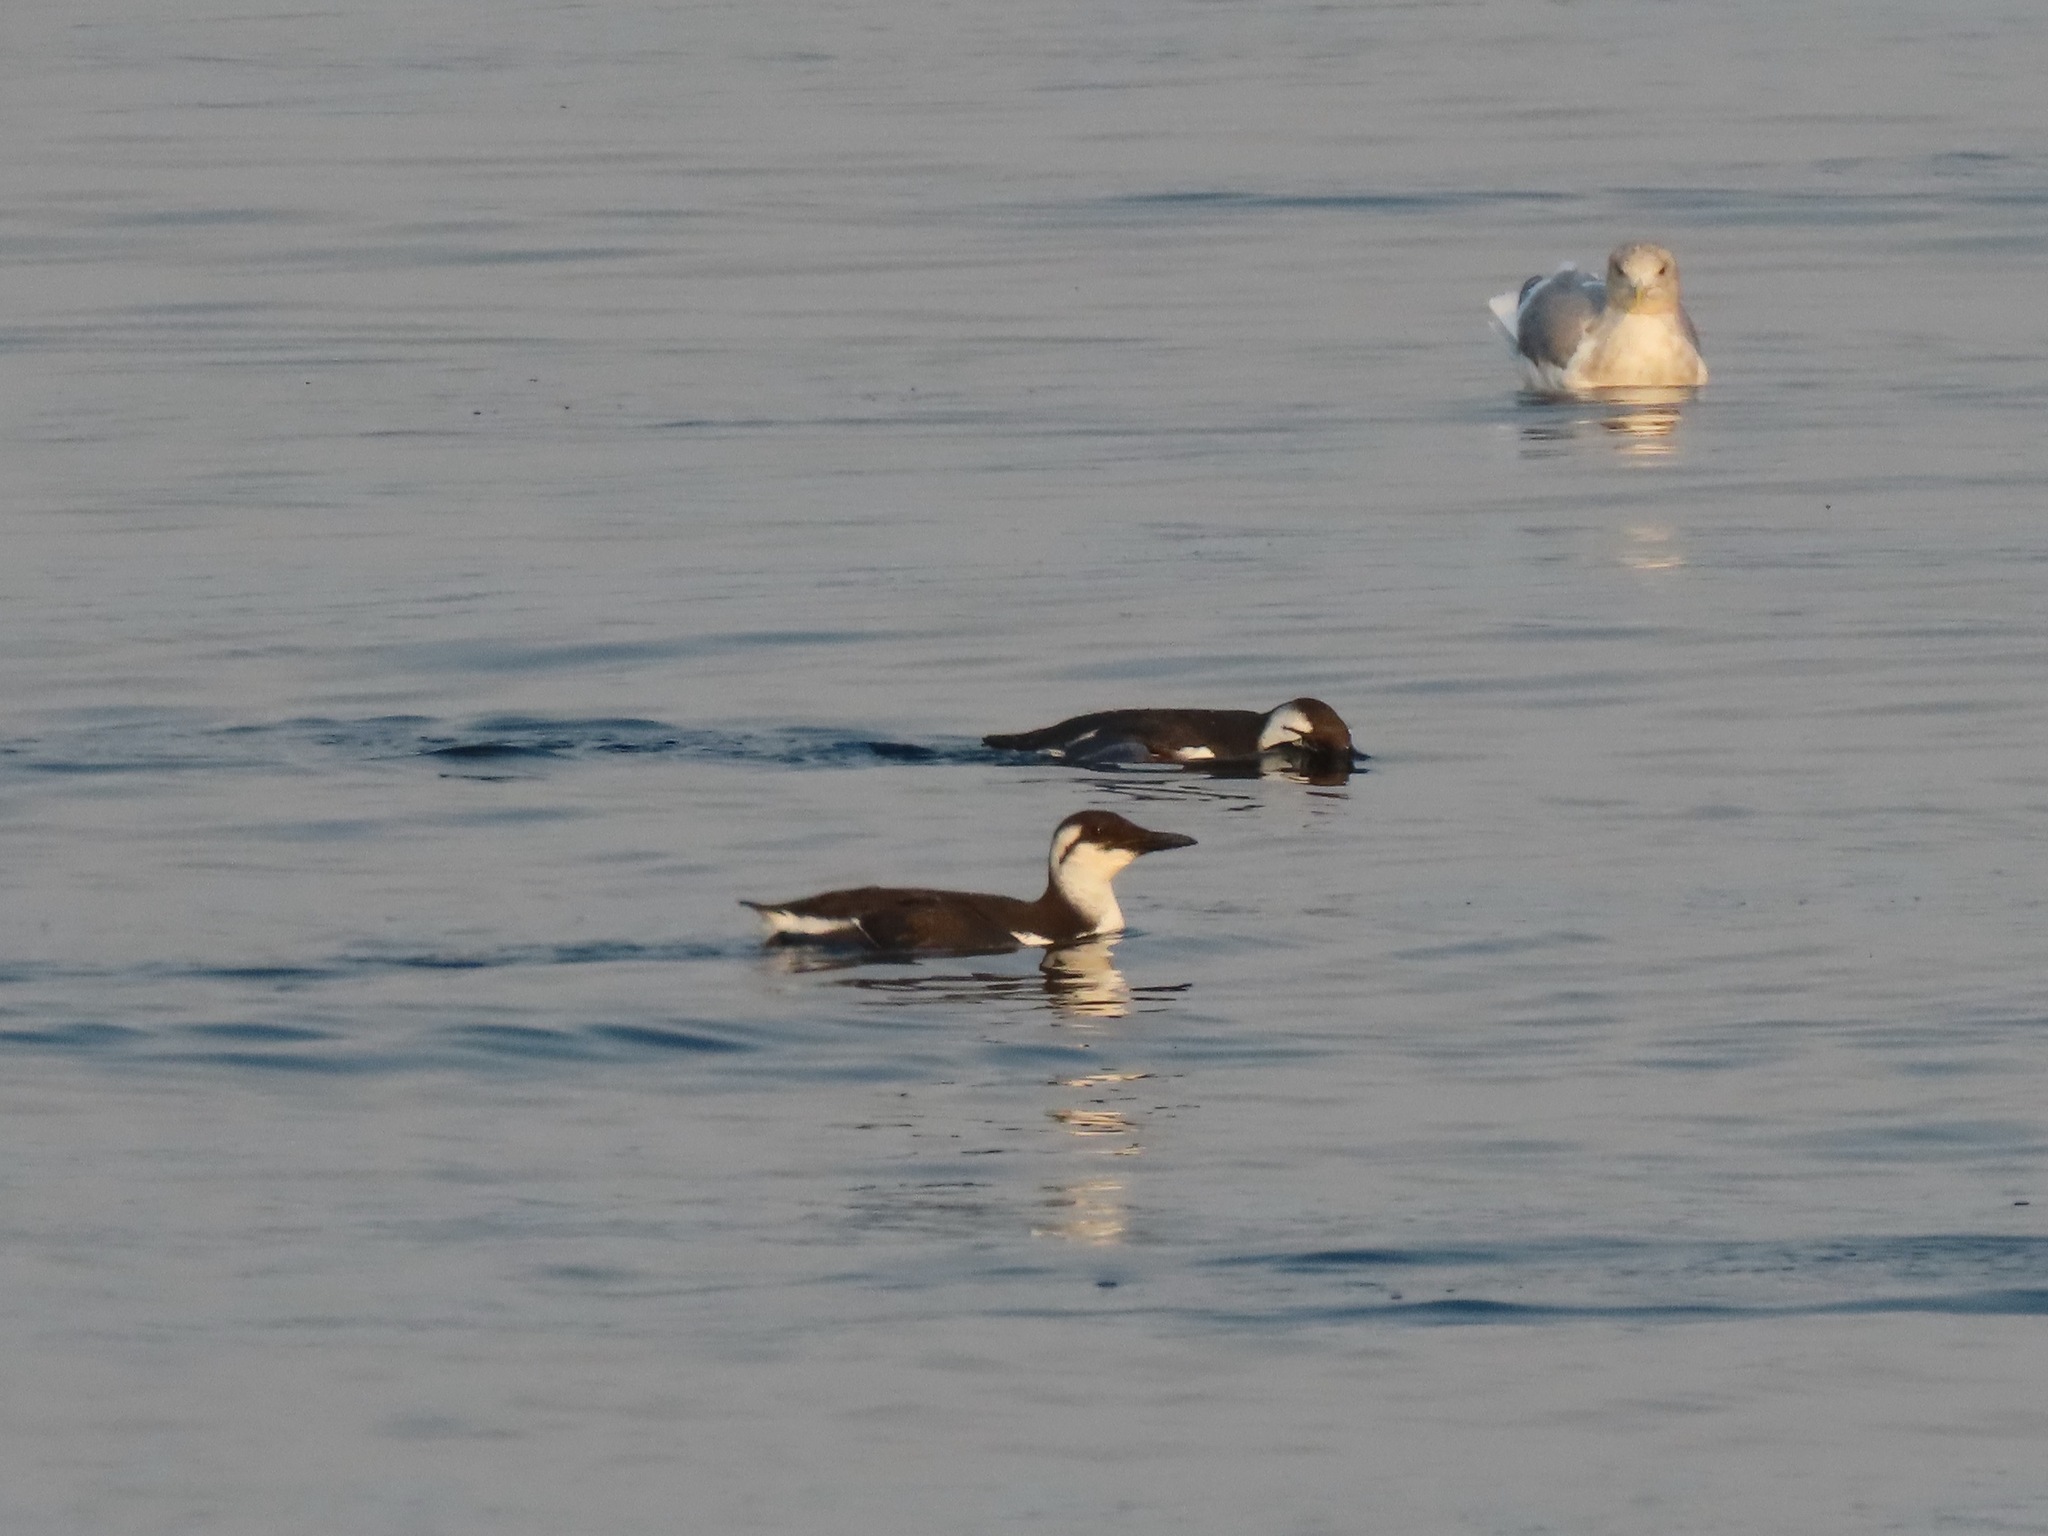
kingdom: Animalia
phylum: Chordata
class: Aves
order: Charadriiformes
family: Alcidae
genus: Uria
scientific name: Uria aalge
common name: Common murre
